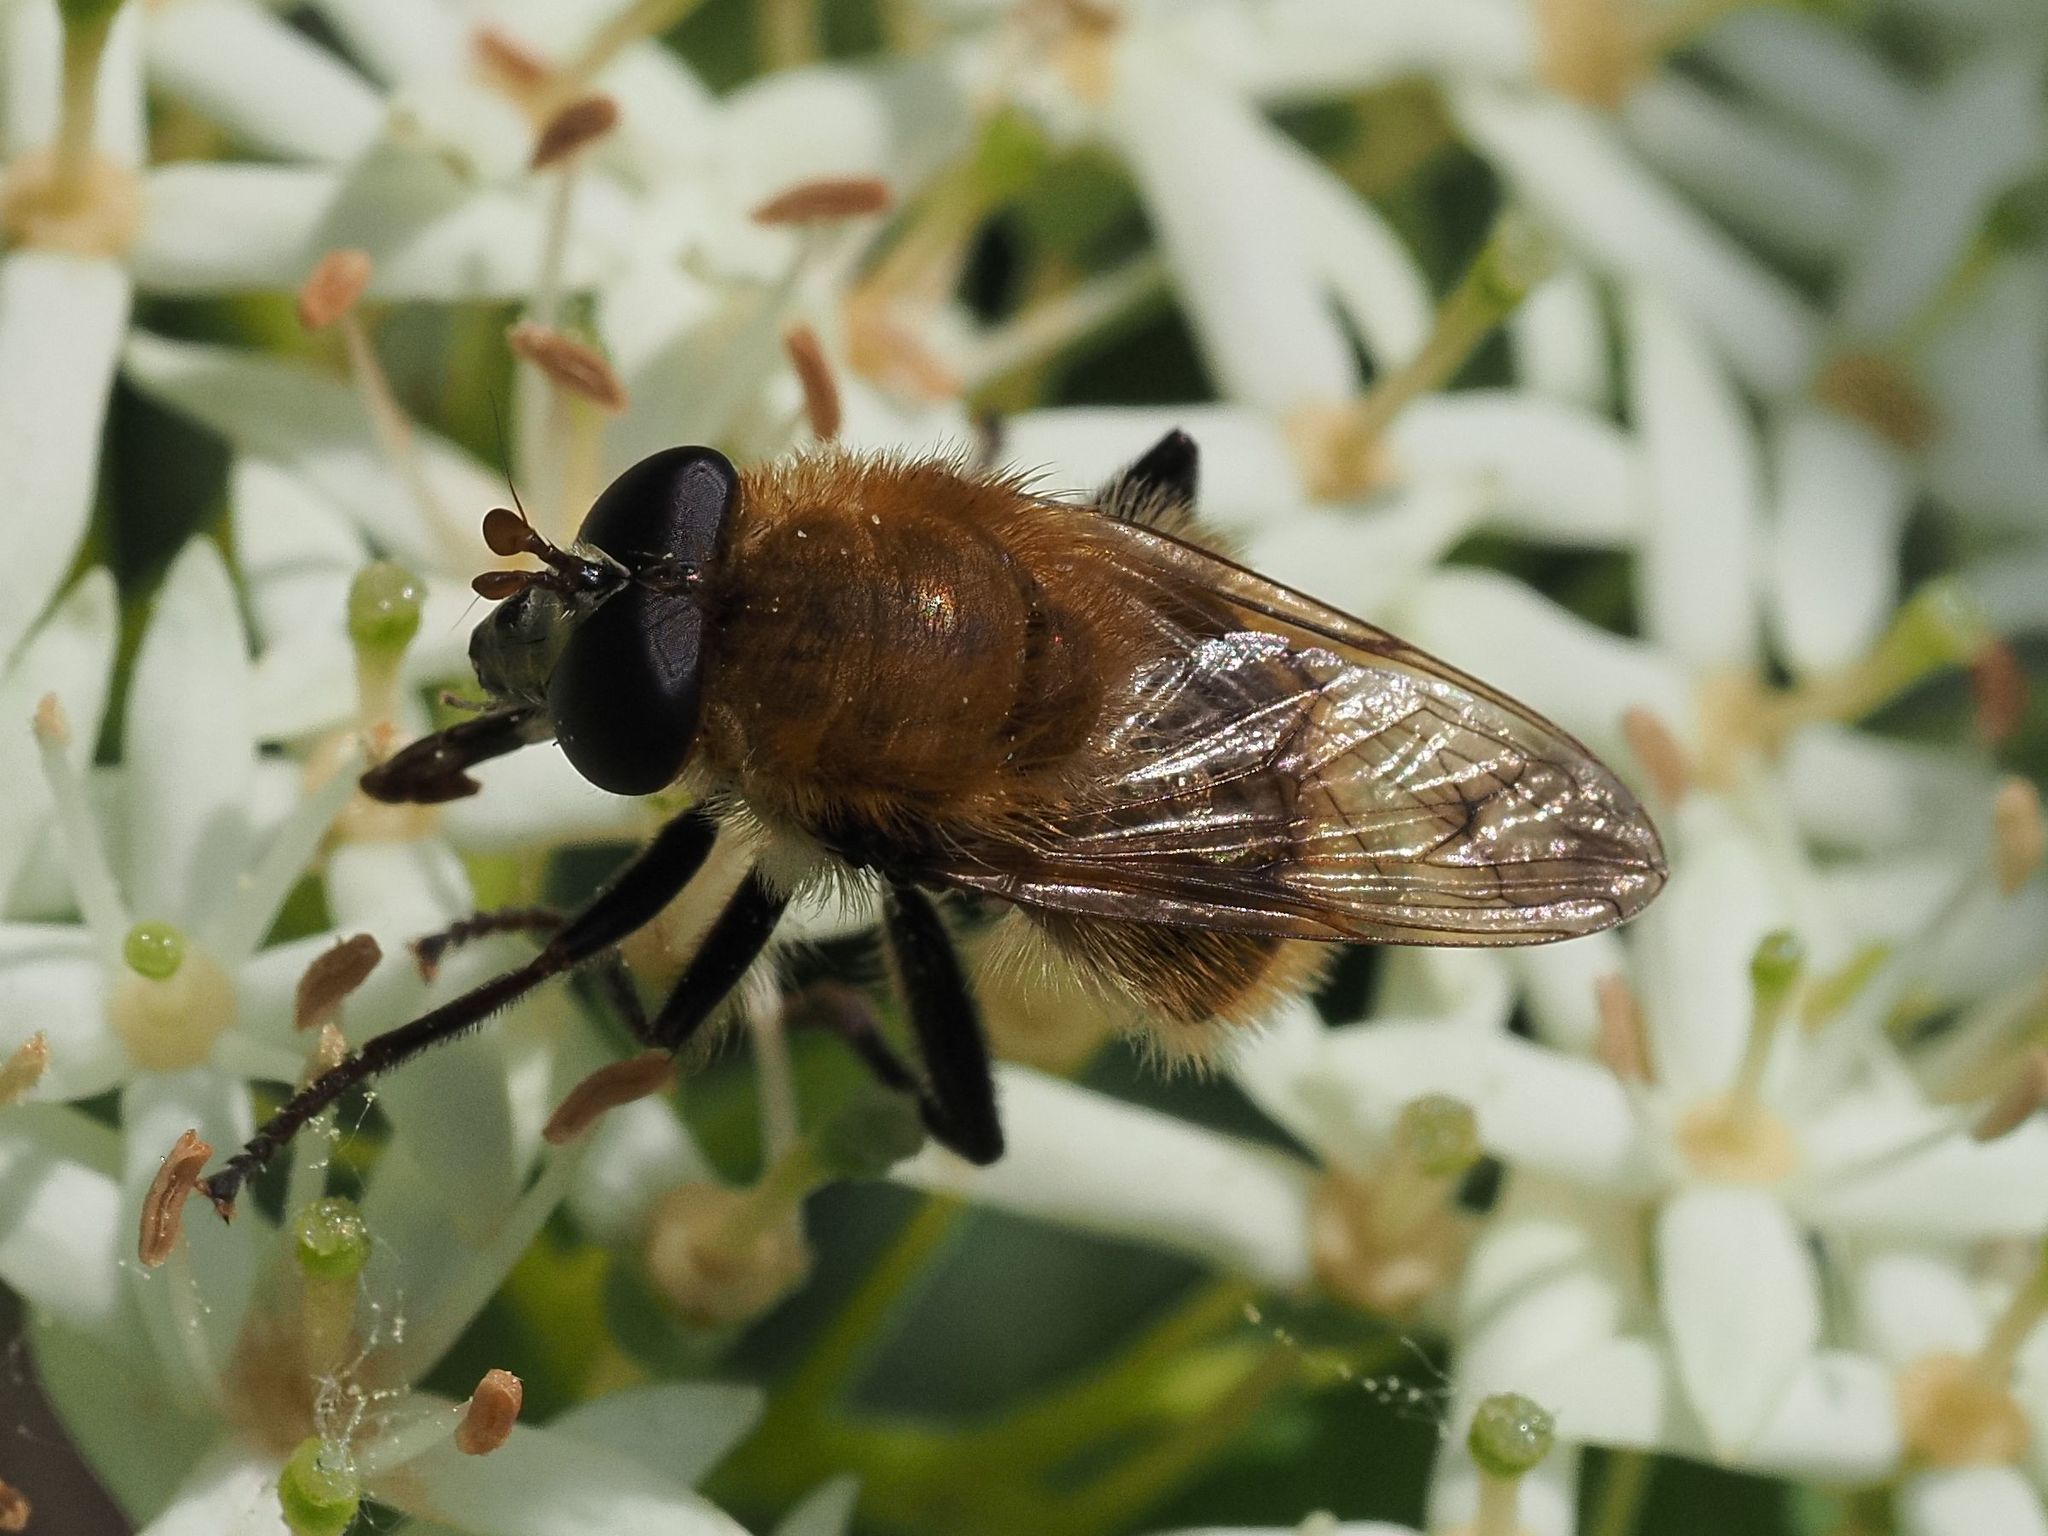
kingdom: Animalia
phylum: Arthropoda
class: Insecta
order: Diptera
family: Syrphidae
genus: Criorhina
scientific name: Criorhina berberina
